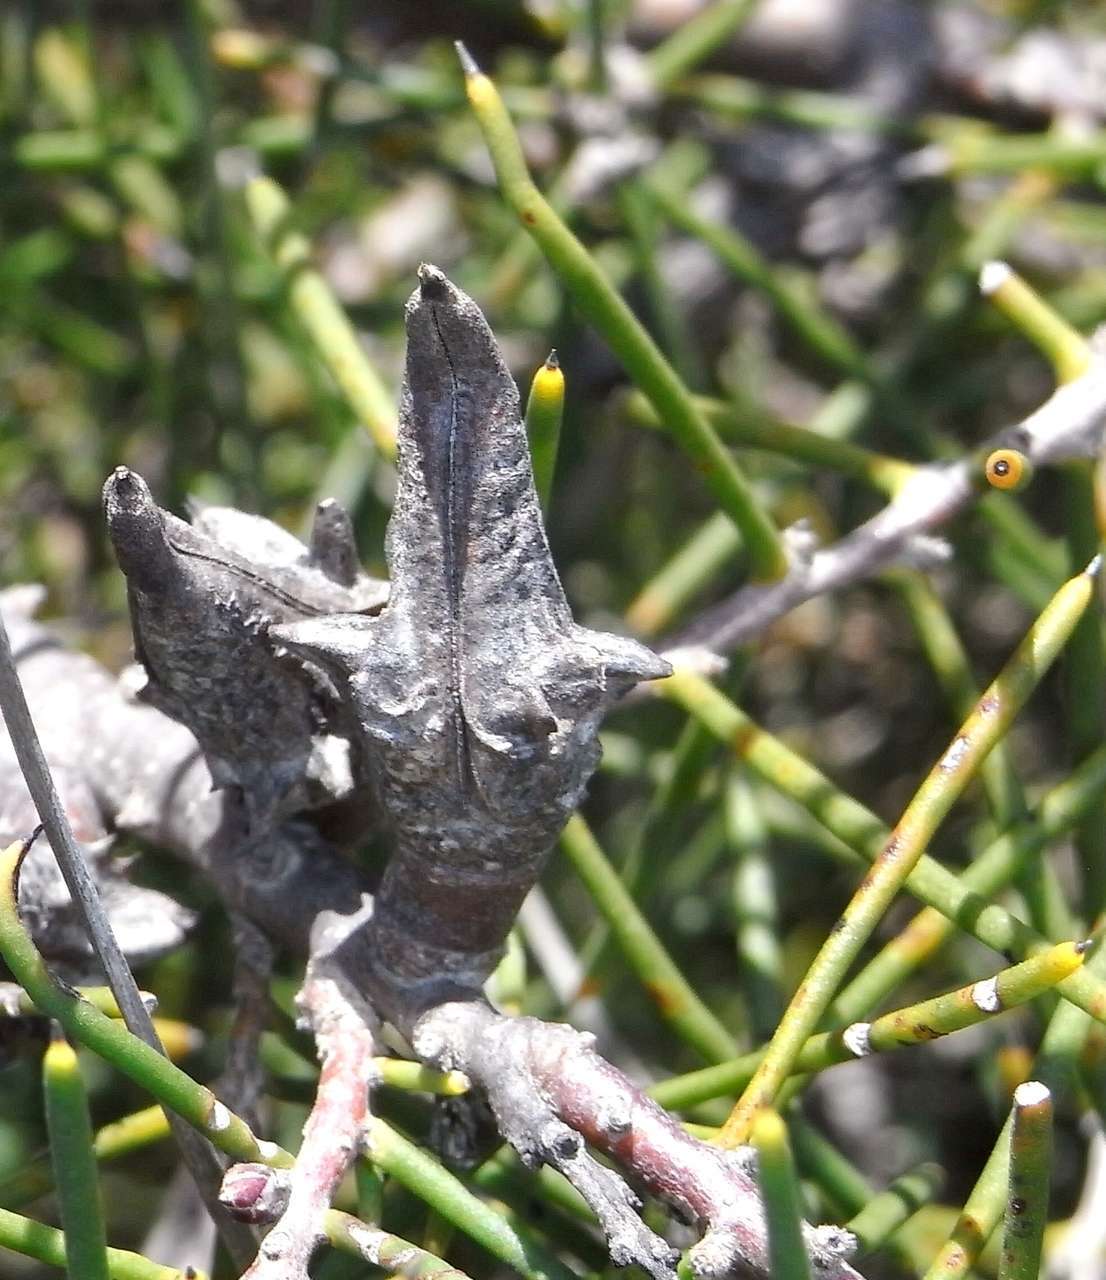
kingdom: Plantae
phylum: Tracheophyta
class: Magnoliopsida
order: Proteales
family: Proteaceae
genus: Hakea
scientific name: Hakea teretifolia
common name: Dagger hakea
